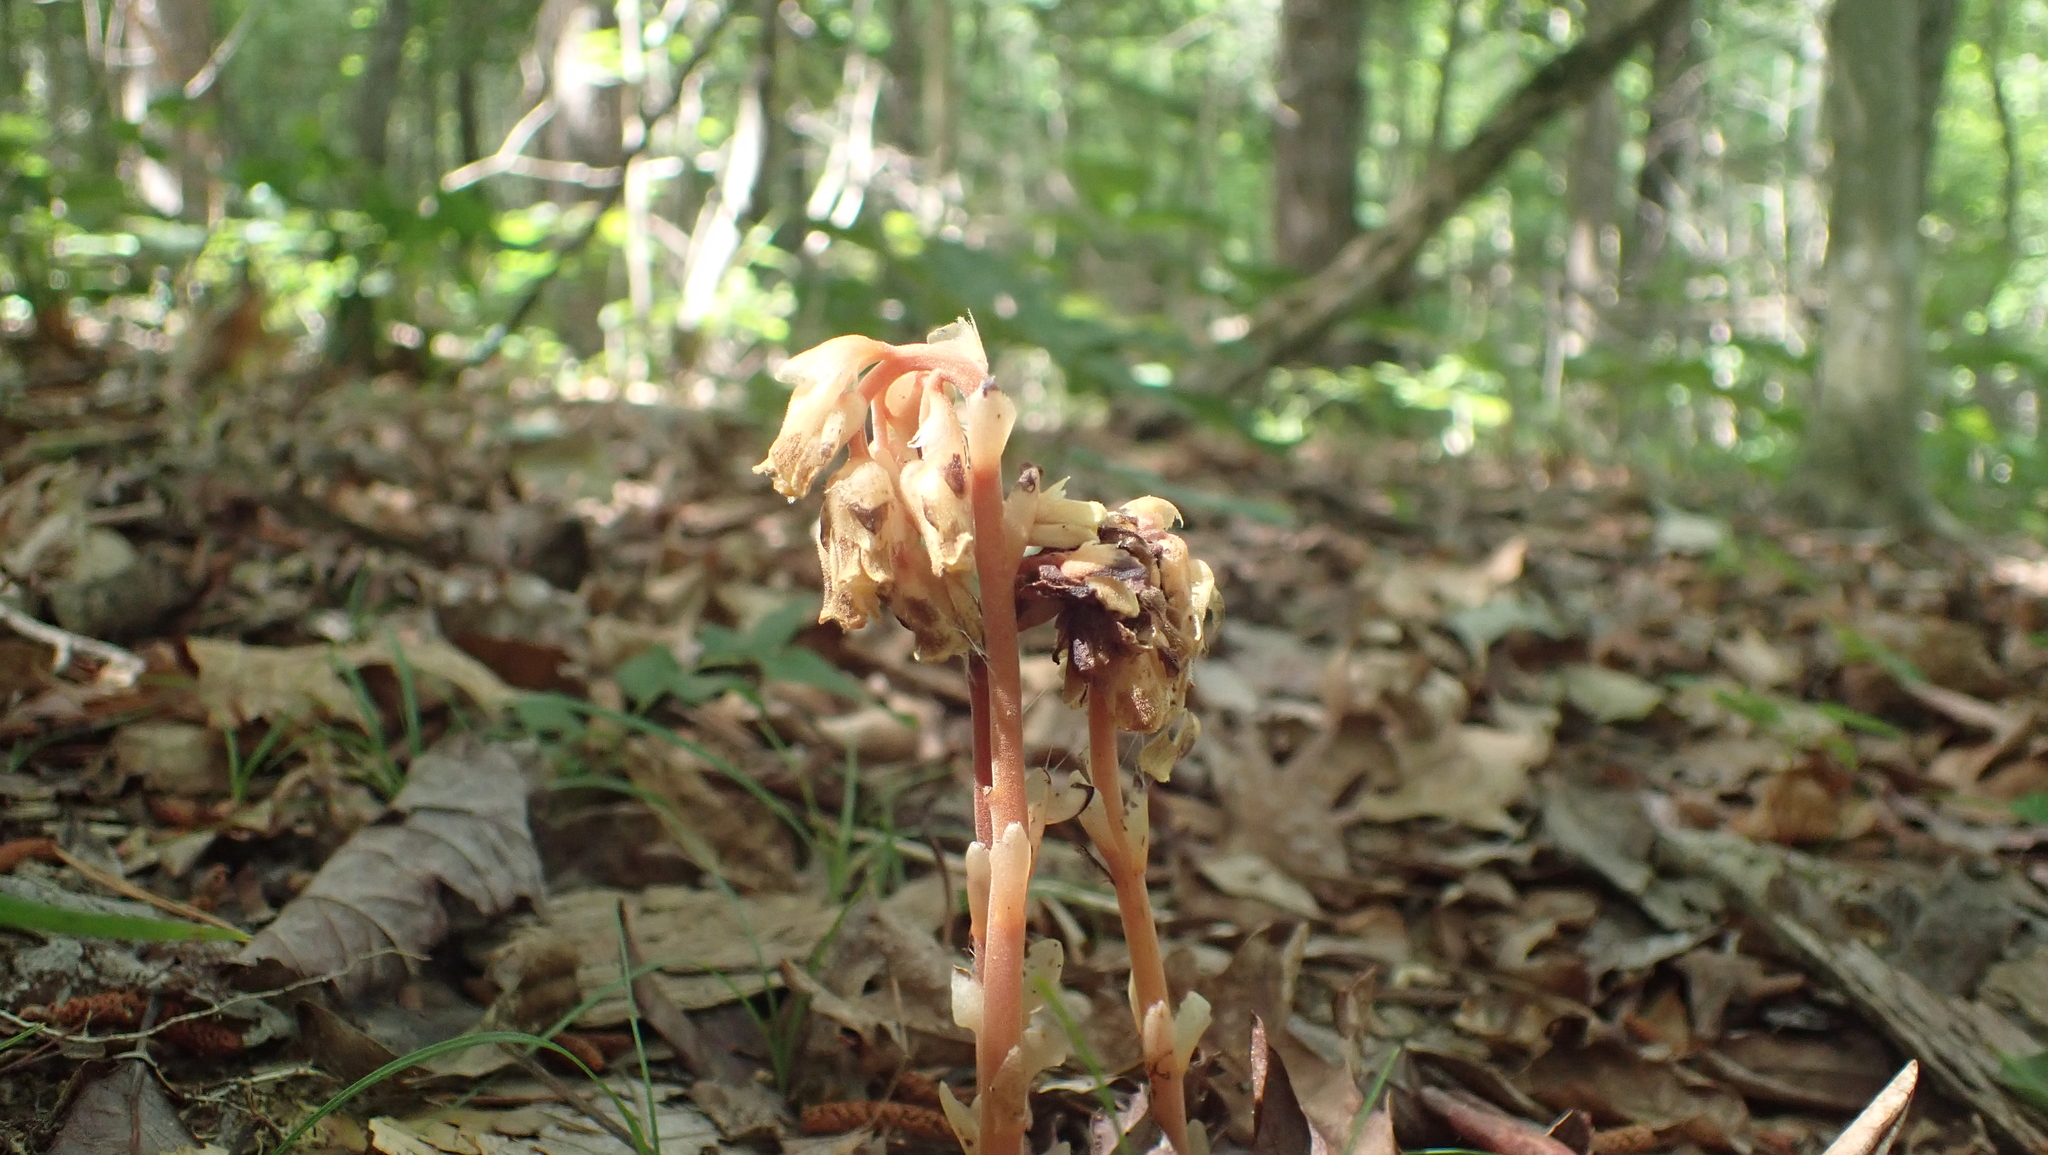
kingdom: Plantae
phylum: Tracheophyta
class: Magnoliopsida
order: Ericales
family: Ericaceae
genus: Hypopitys
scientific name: Hypopitys monotropa
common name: Yellow bird's-nest
